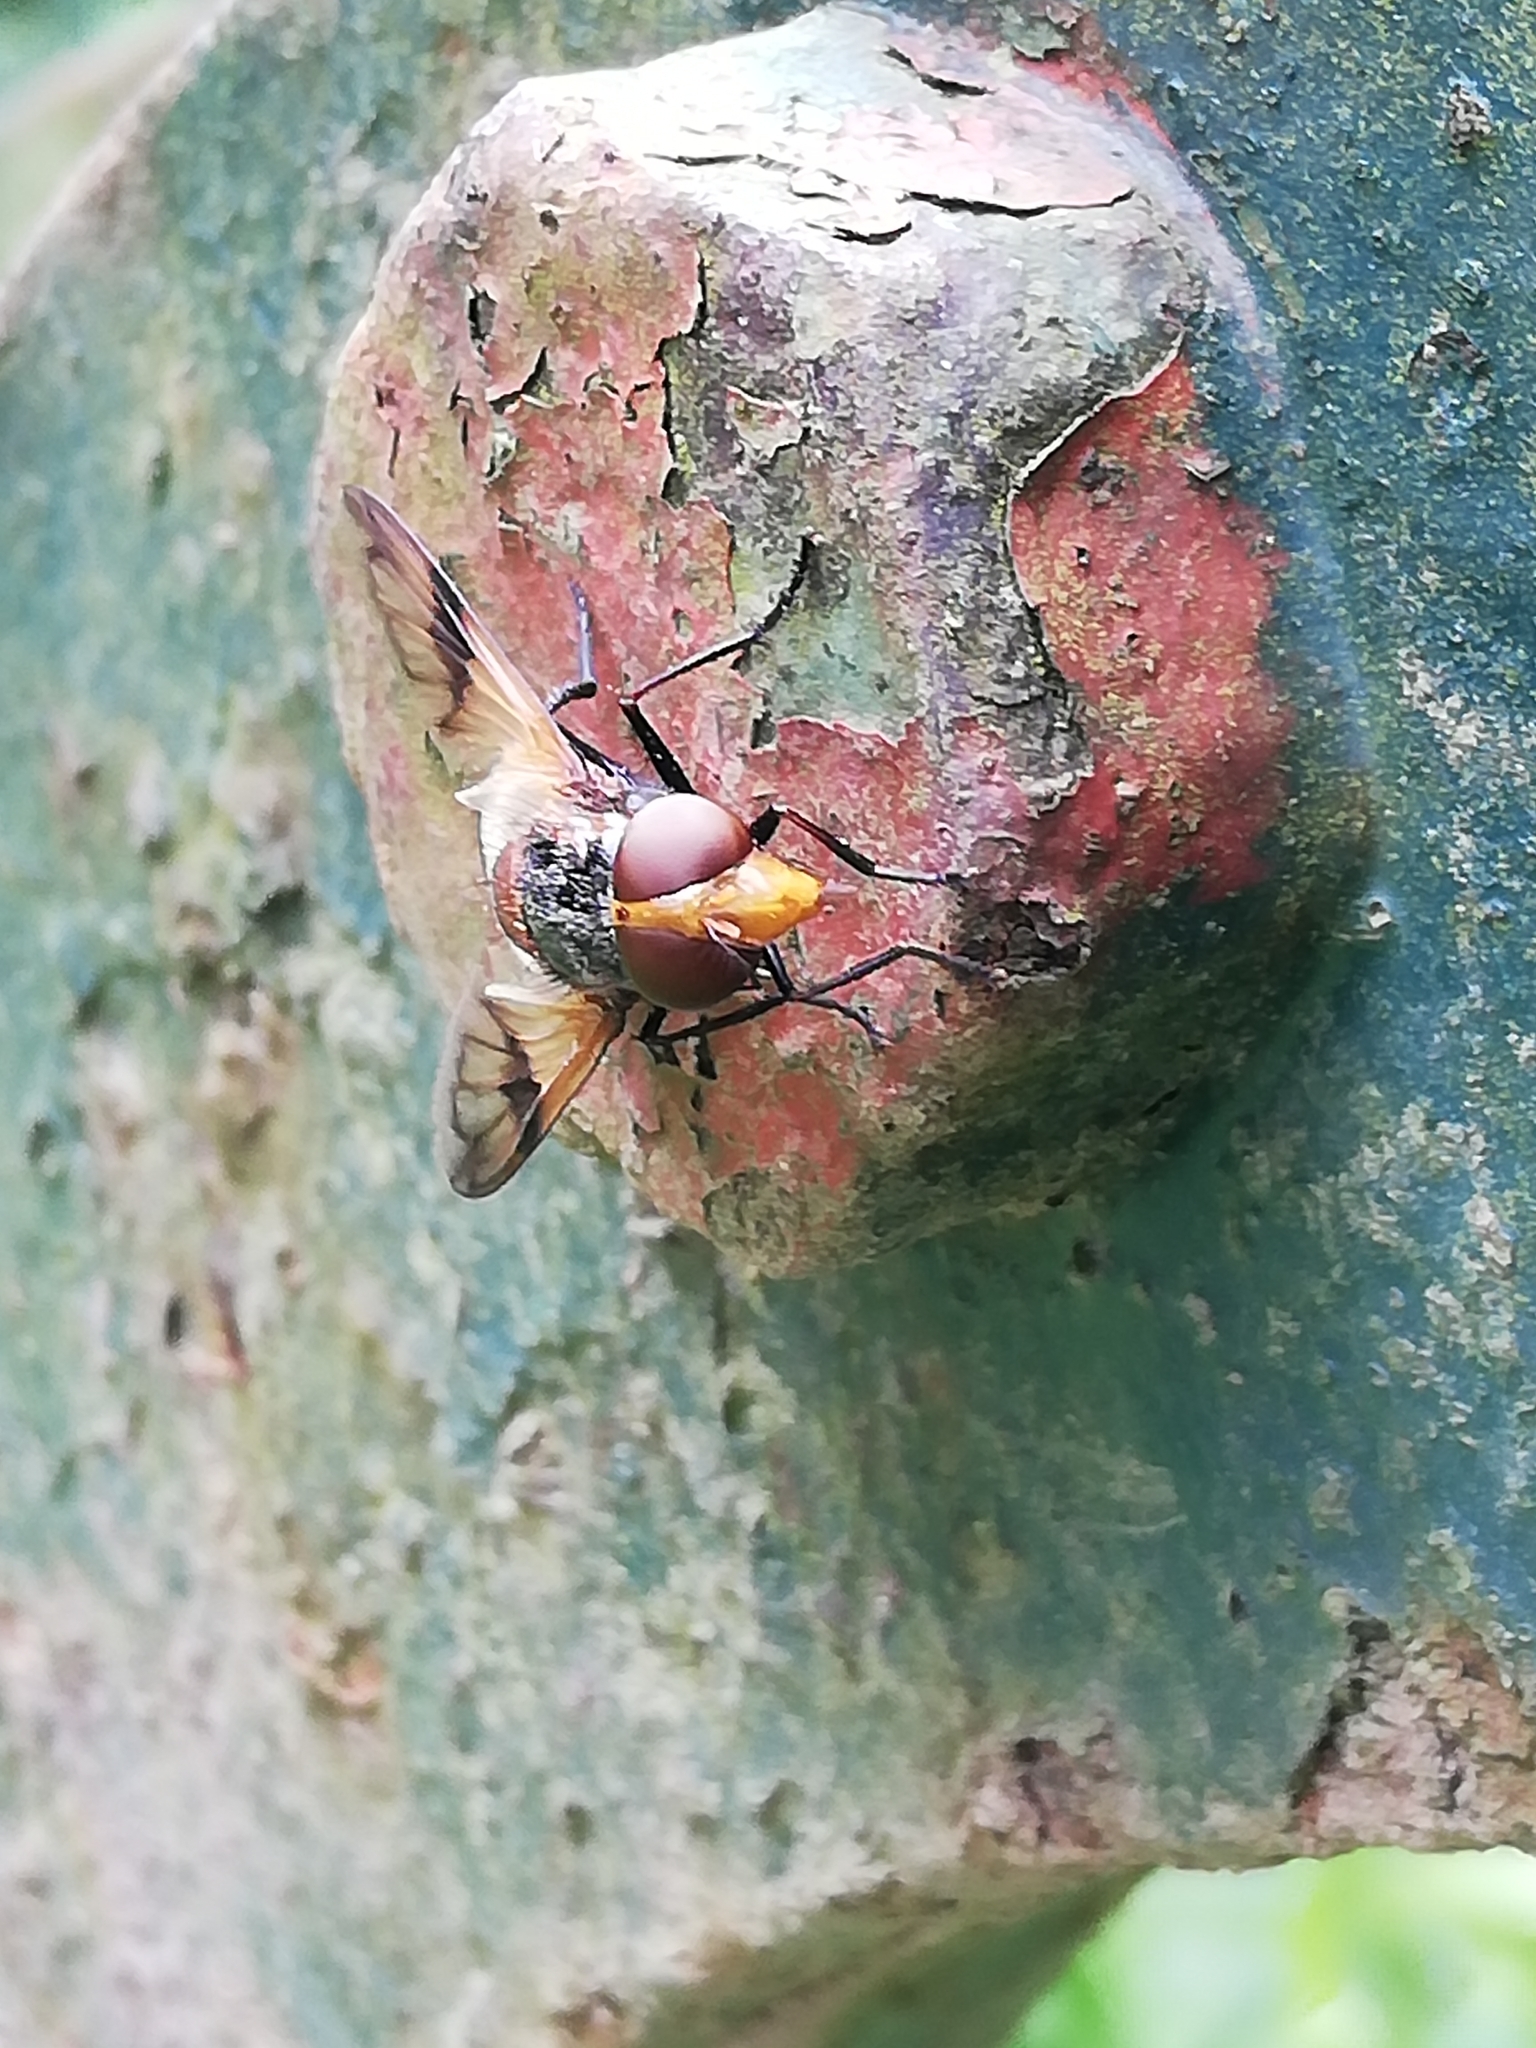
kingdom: Animalia
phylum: Arthropoda
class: Insecta
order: Diptera
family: Syrphidae
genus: Volucella
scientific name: Volucella pellucens
